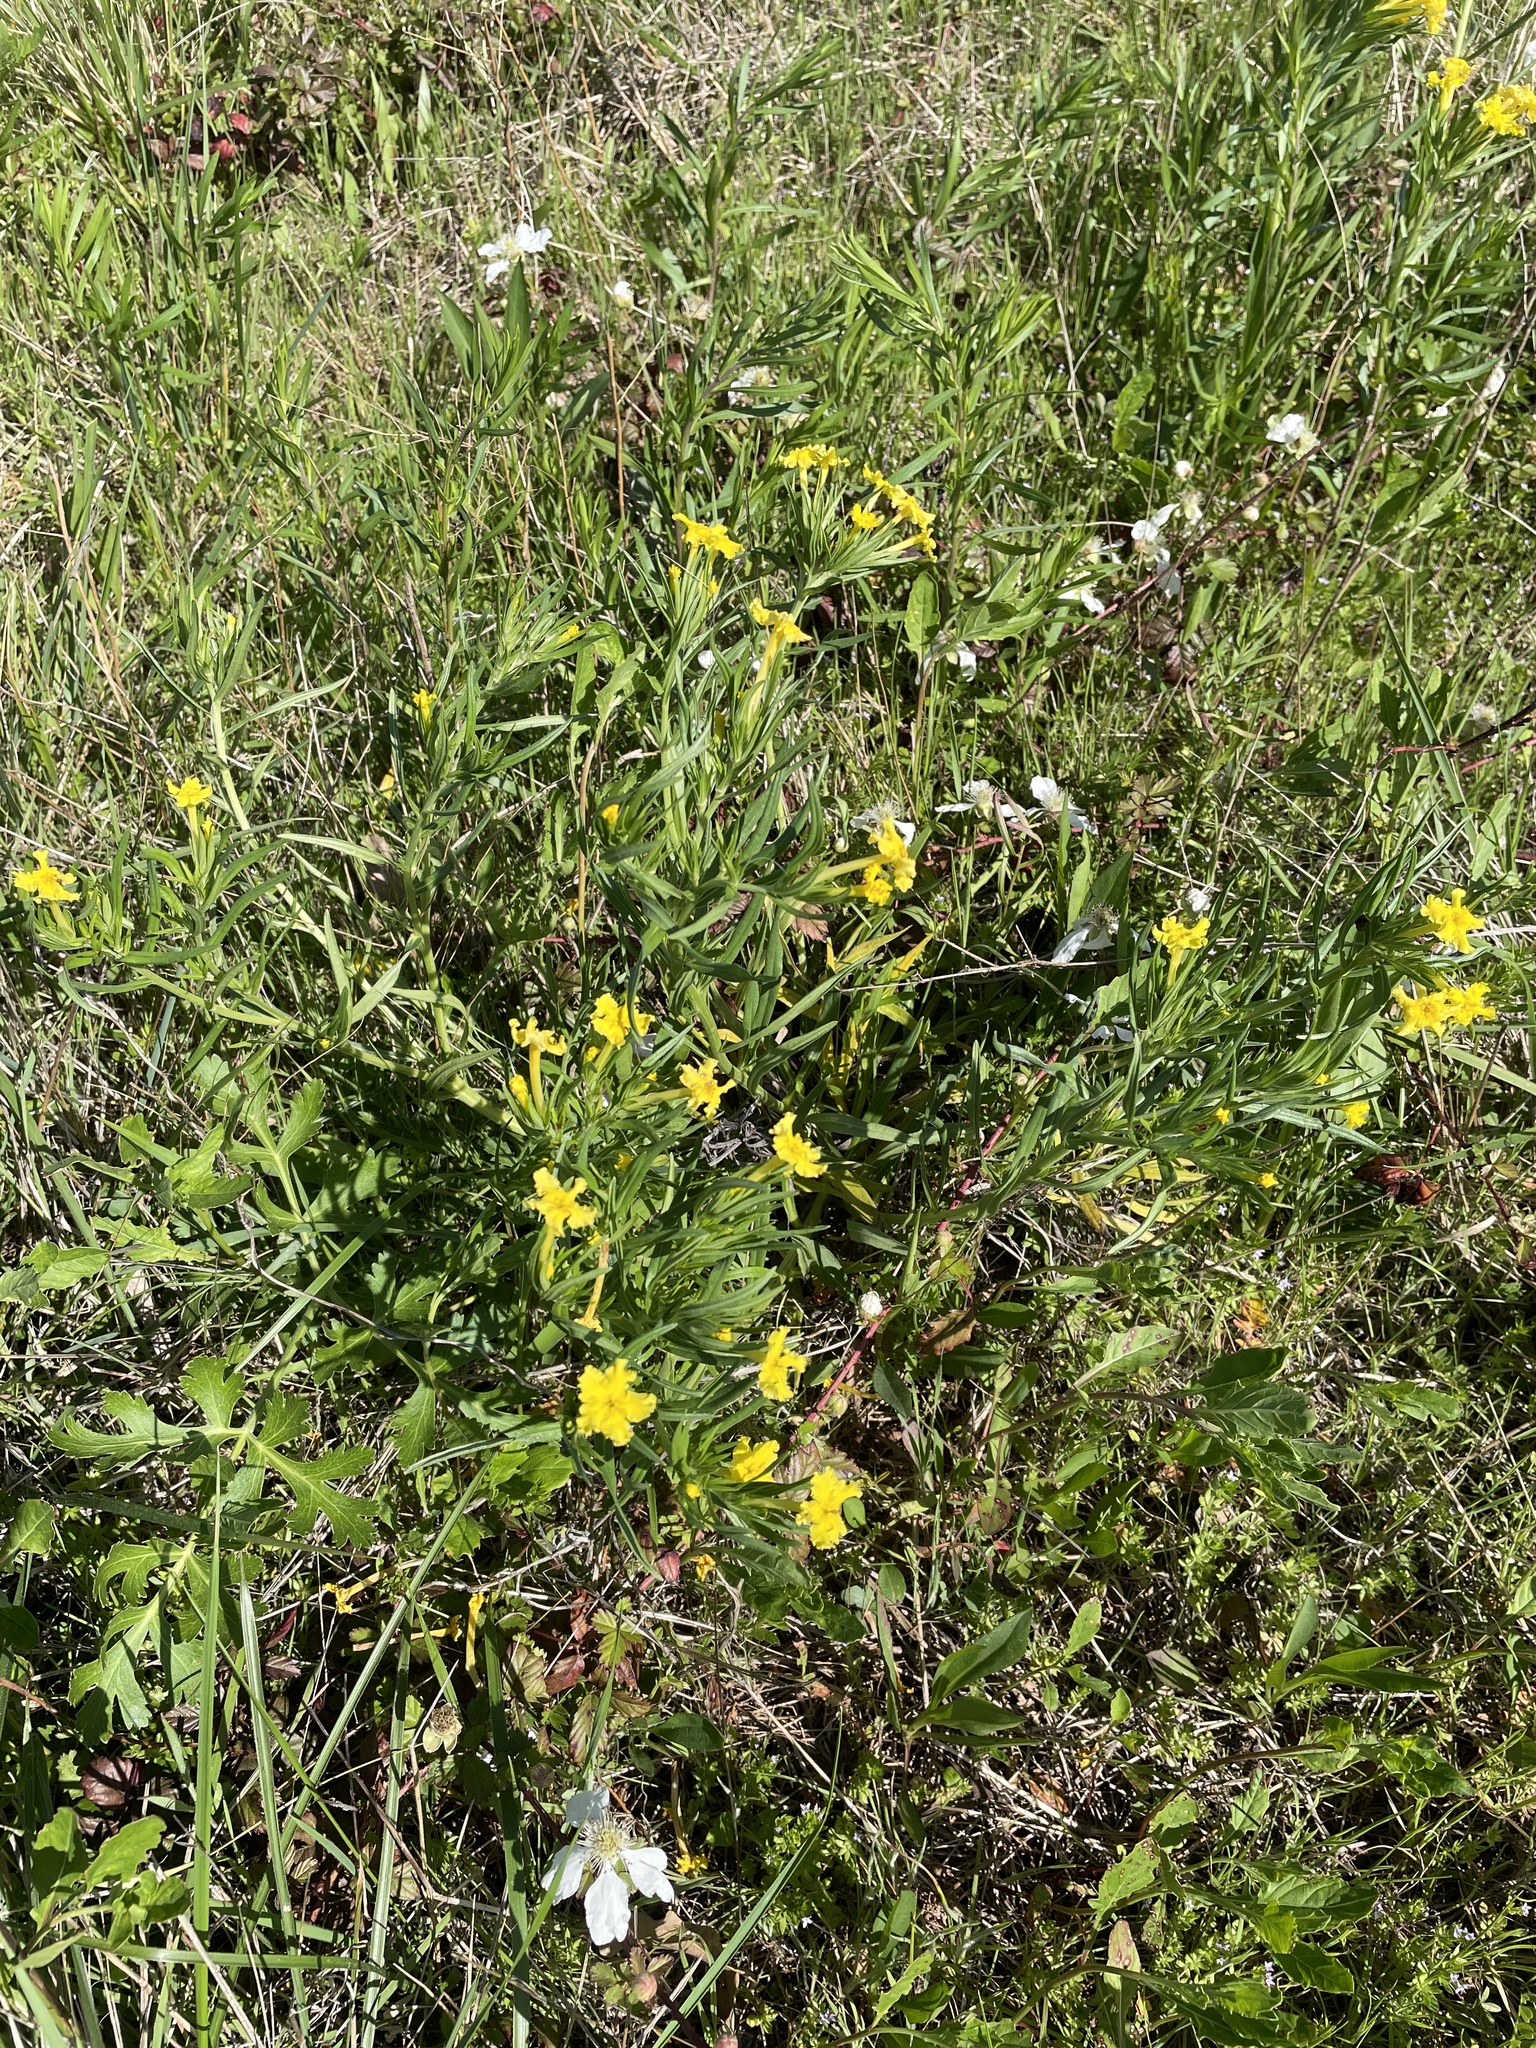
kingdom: Plantae
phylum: Tracheophyta
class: Magnoliopsida
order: Boraginales
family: Boraginaceae
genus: Lithospermum
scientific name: Lithospermum incisum
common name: Fringed gromwell
